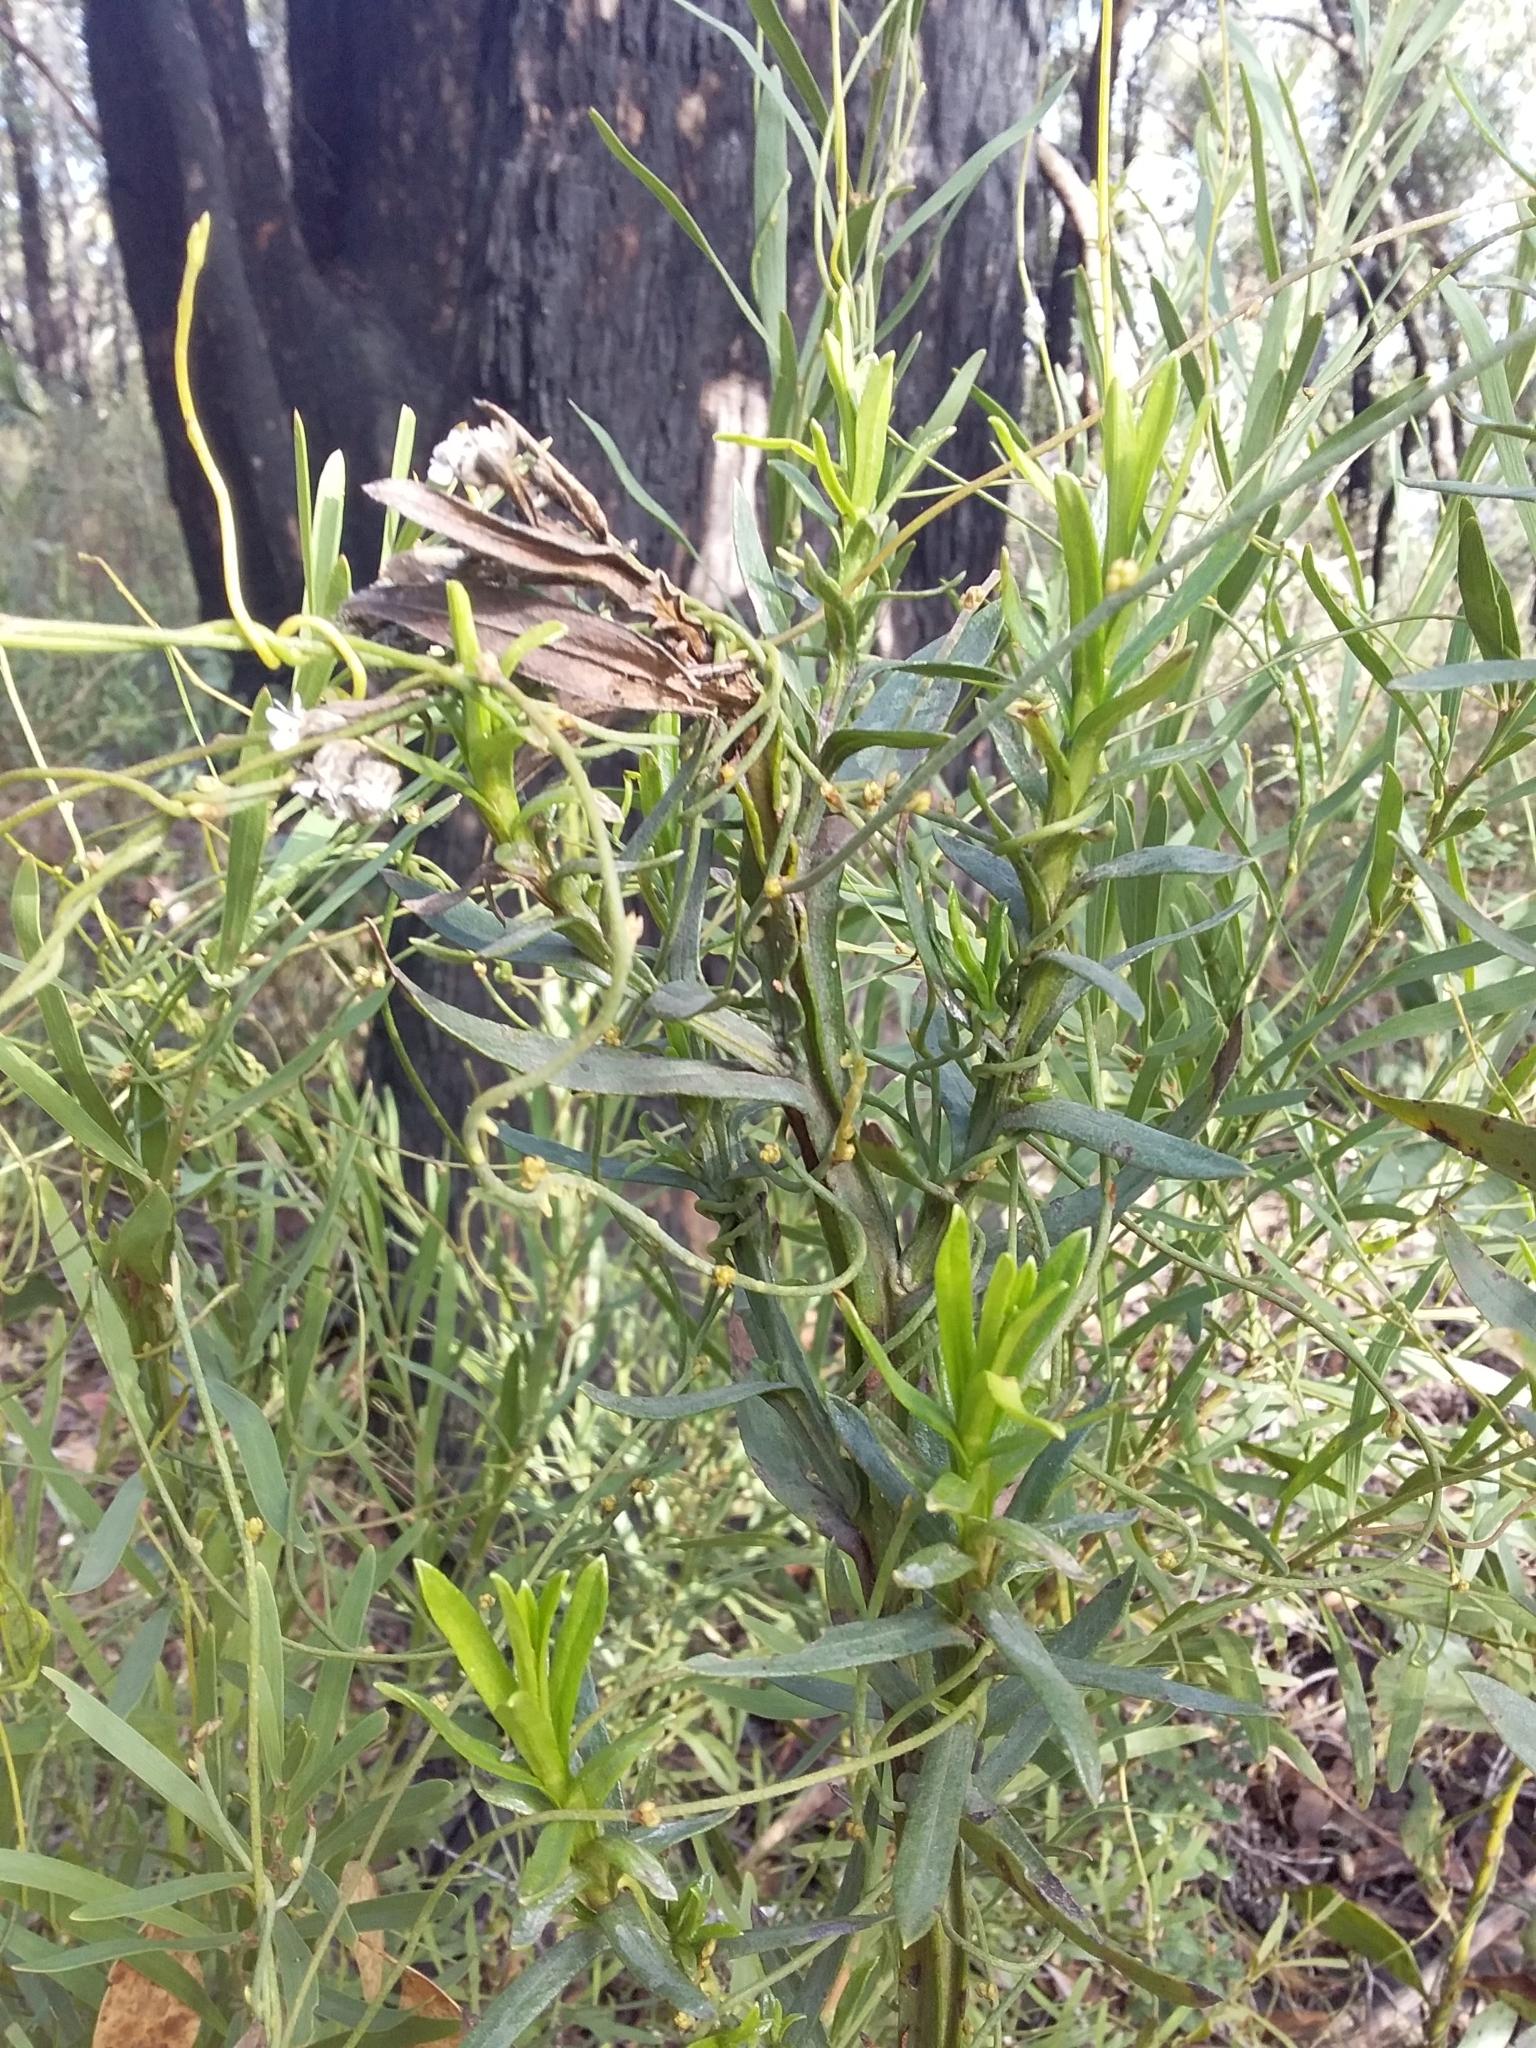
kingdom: Plantae
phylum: Tracheophyta
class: Magnoliopsida
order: Asterales
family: Asteraceae
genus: Ixodia
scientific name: Ixodia achillaeoides
